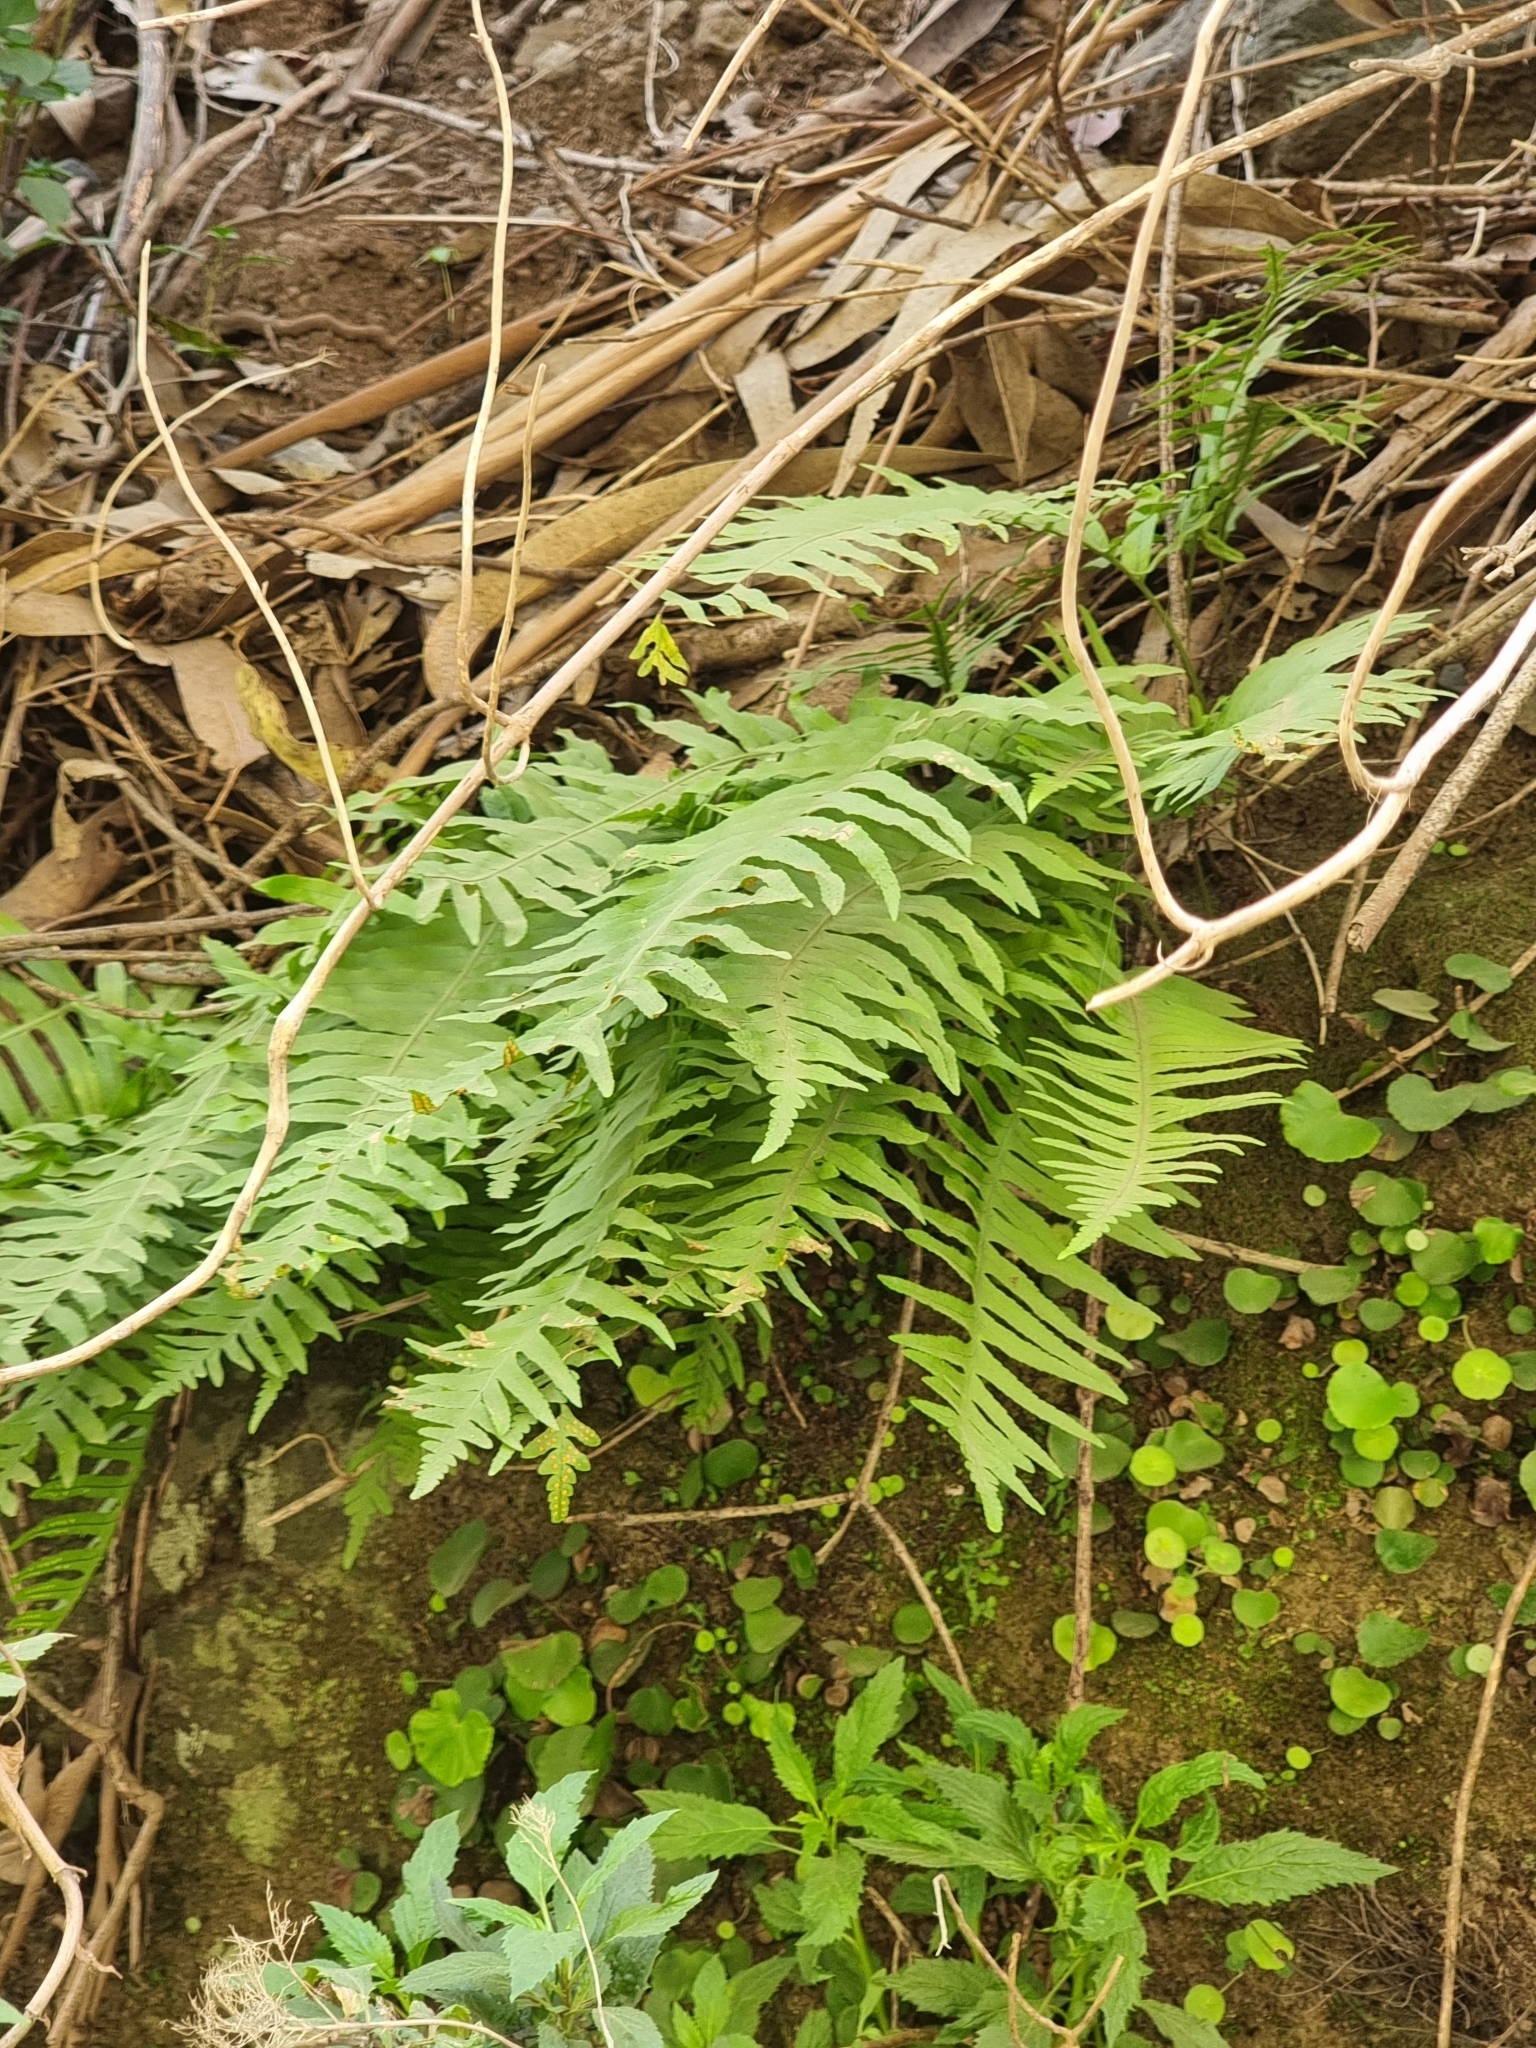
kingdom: Plantae
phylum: Tracheophyta
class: Polypodiopsida
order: Polypodiales
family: Polypodiaceae
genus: Polypodium
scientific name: Polypodium macaronesicum
